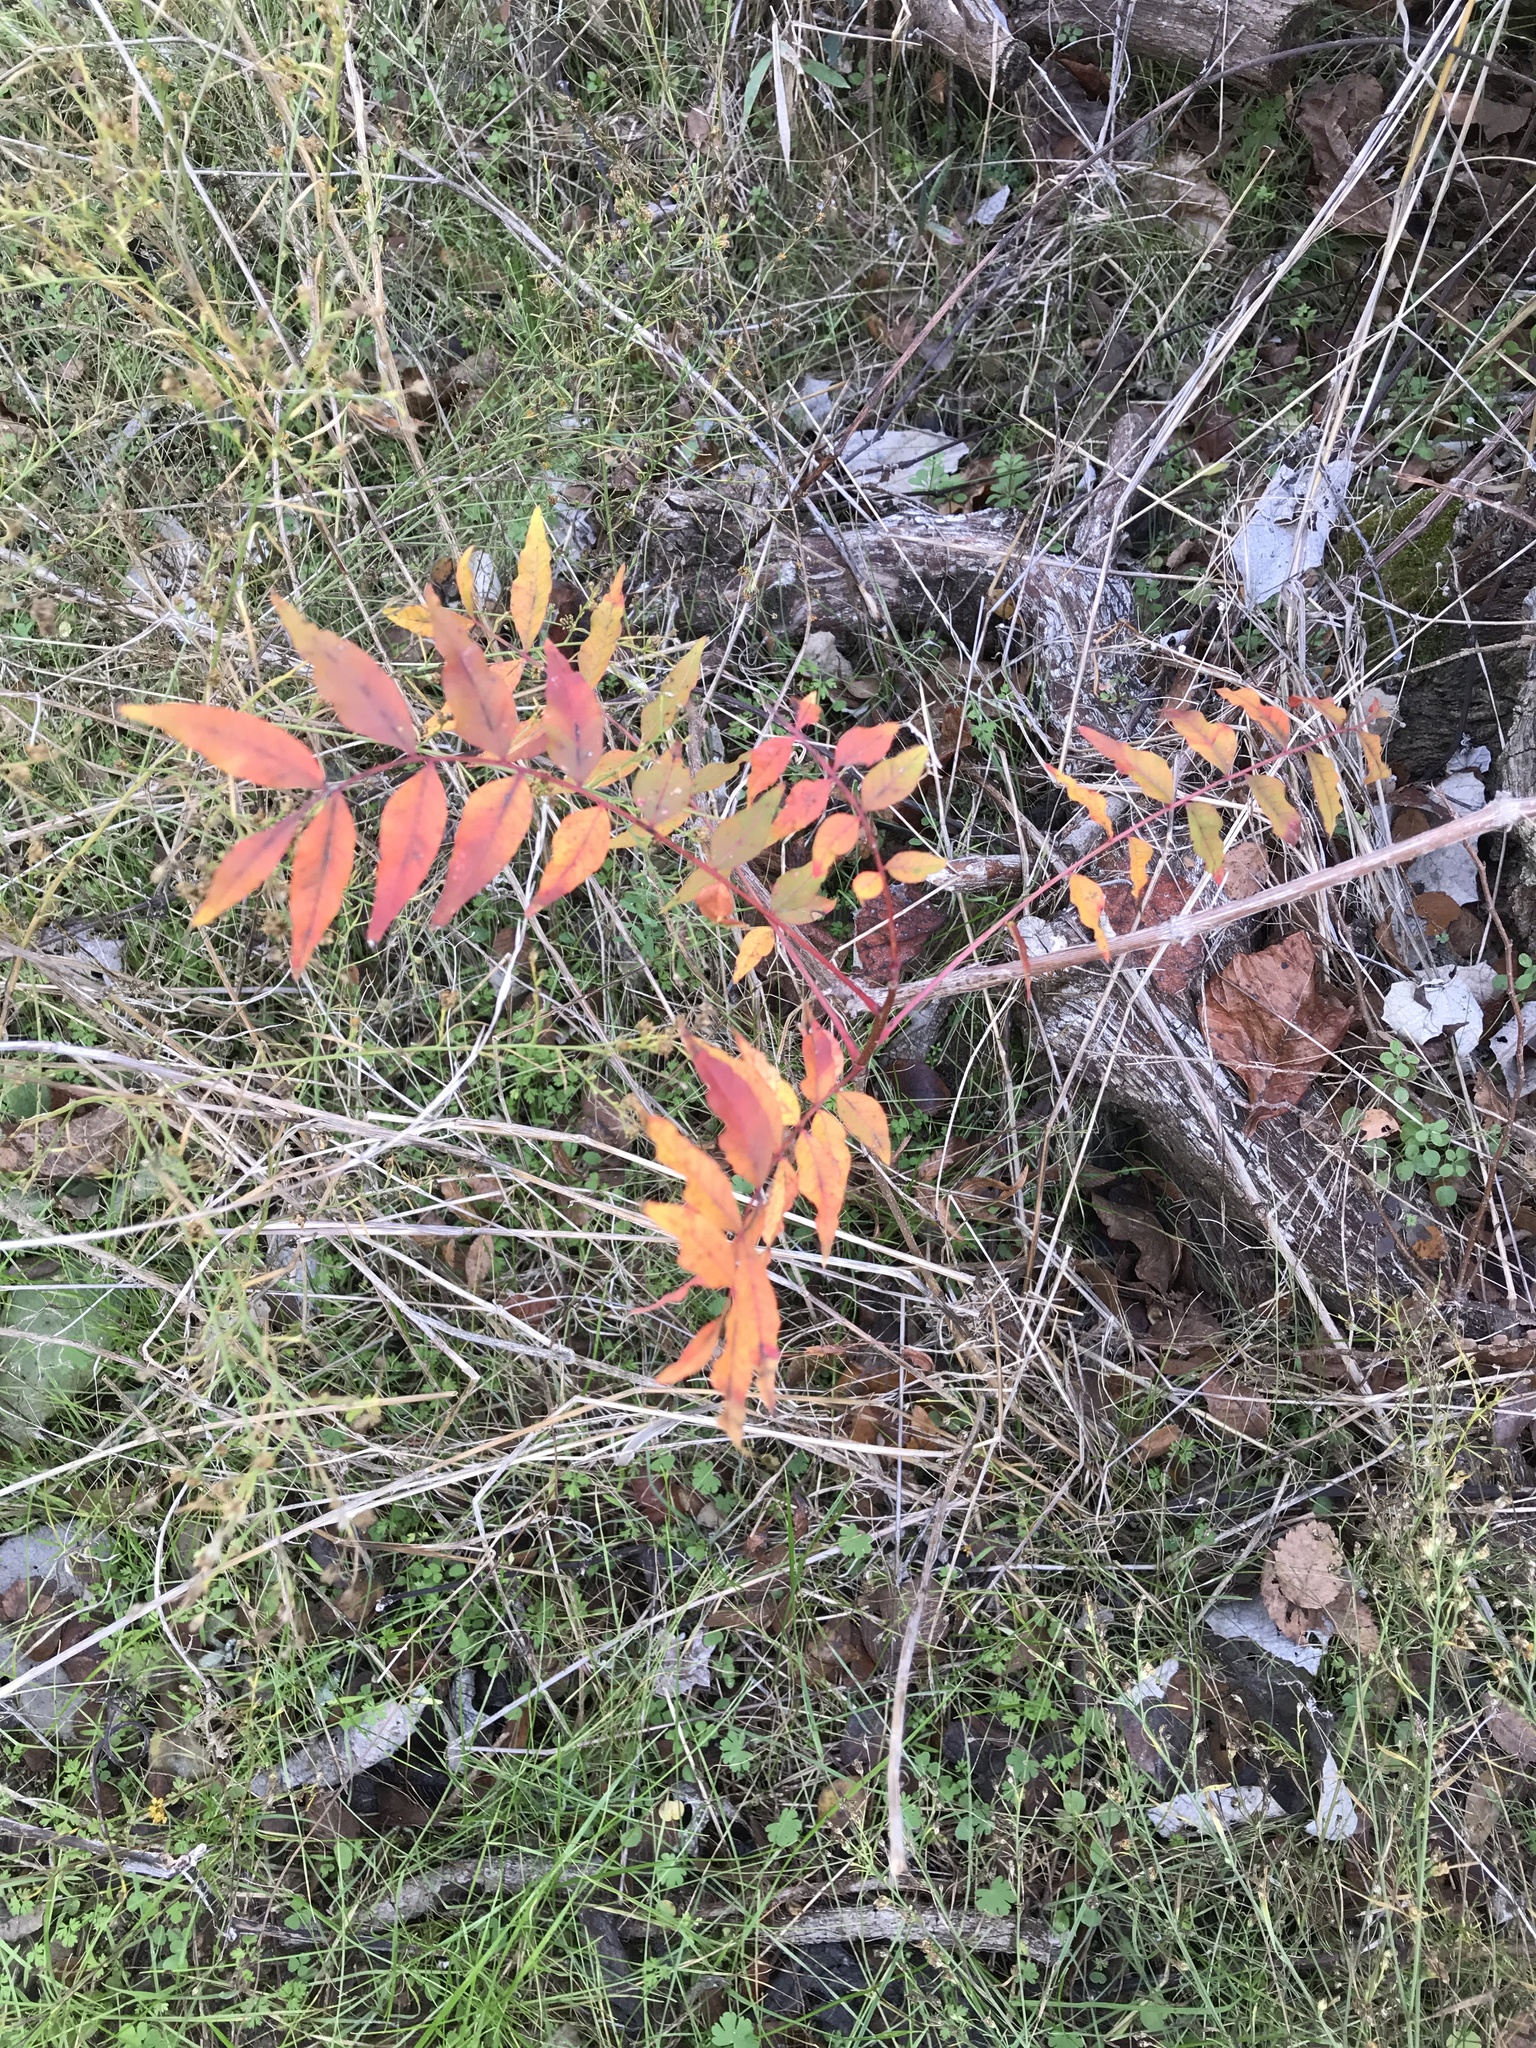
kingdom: Plantae
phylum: Tracheophyta
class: Magnoliopsida
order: Sapindales
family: Anacardiaceae
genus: Pistacia
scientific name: Pistacia chinensis
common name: Chinese pistache
